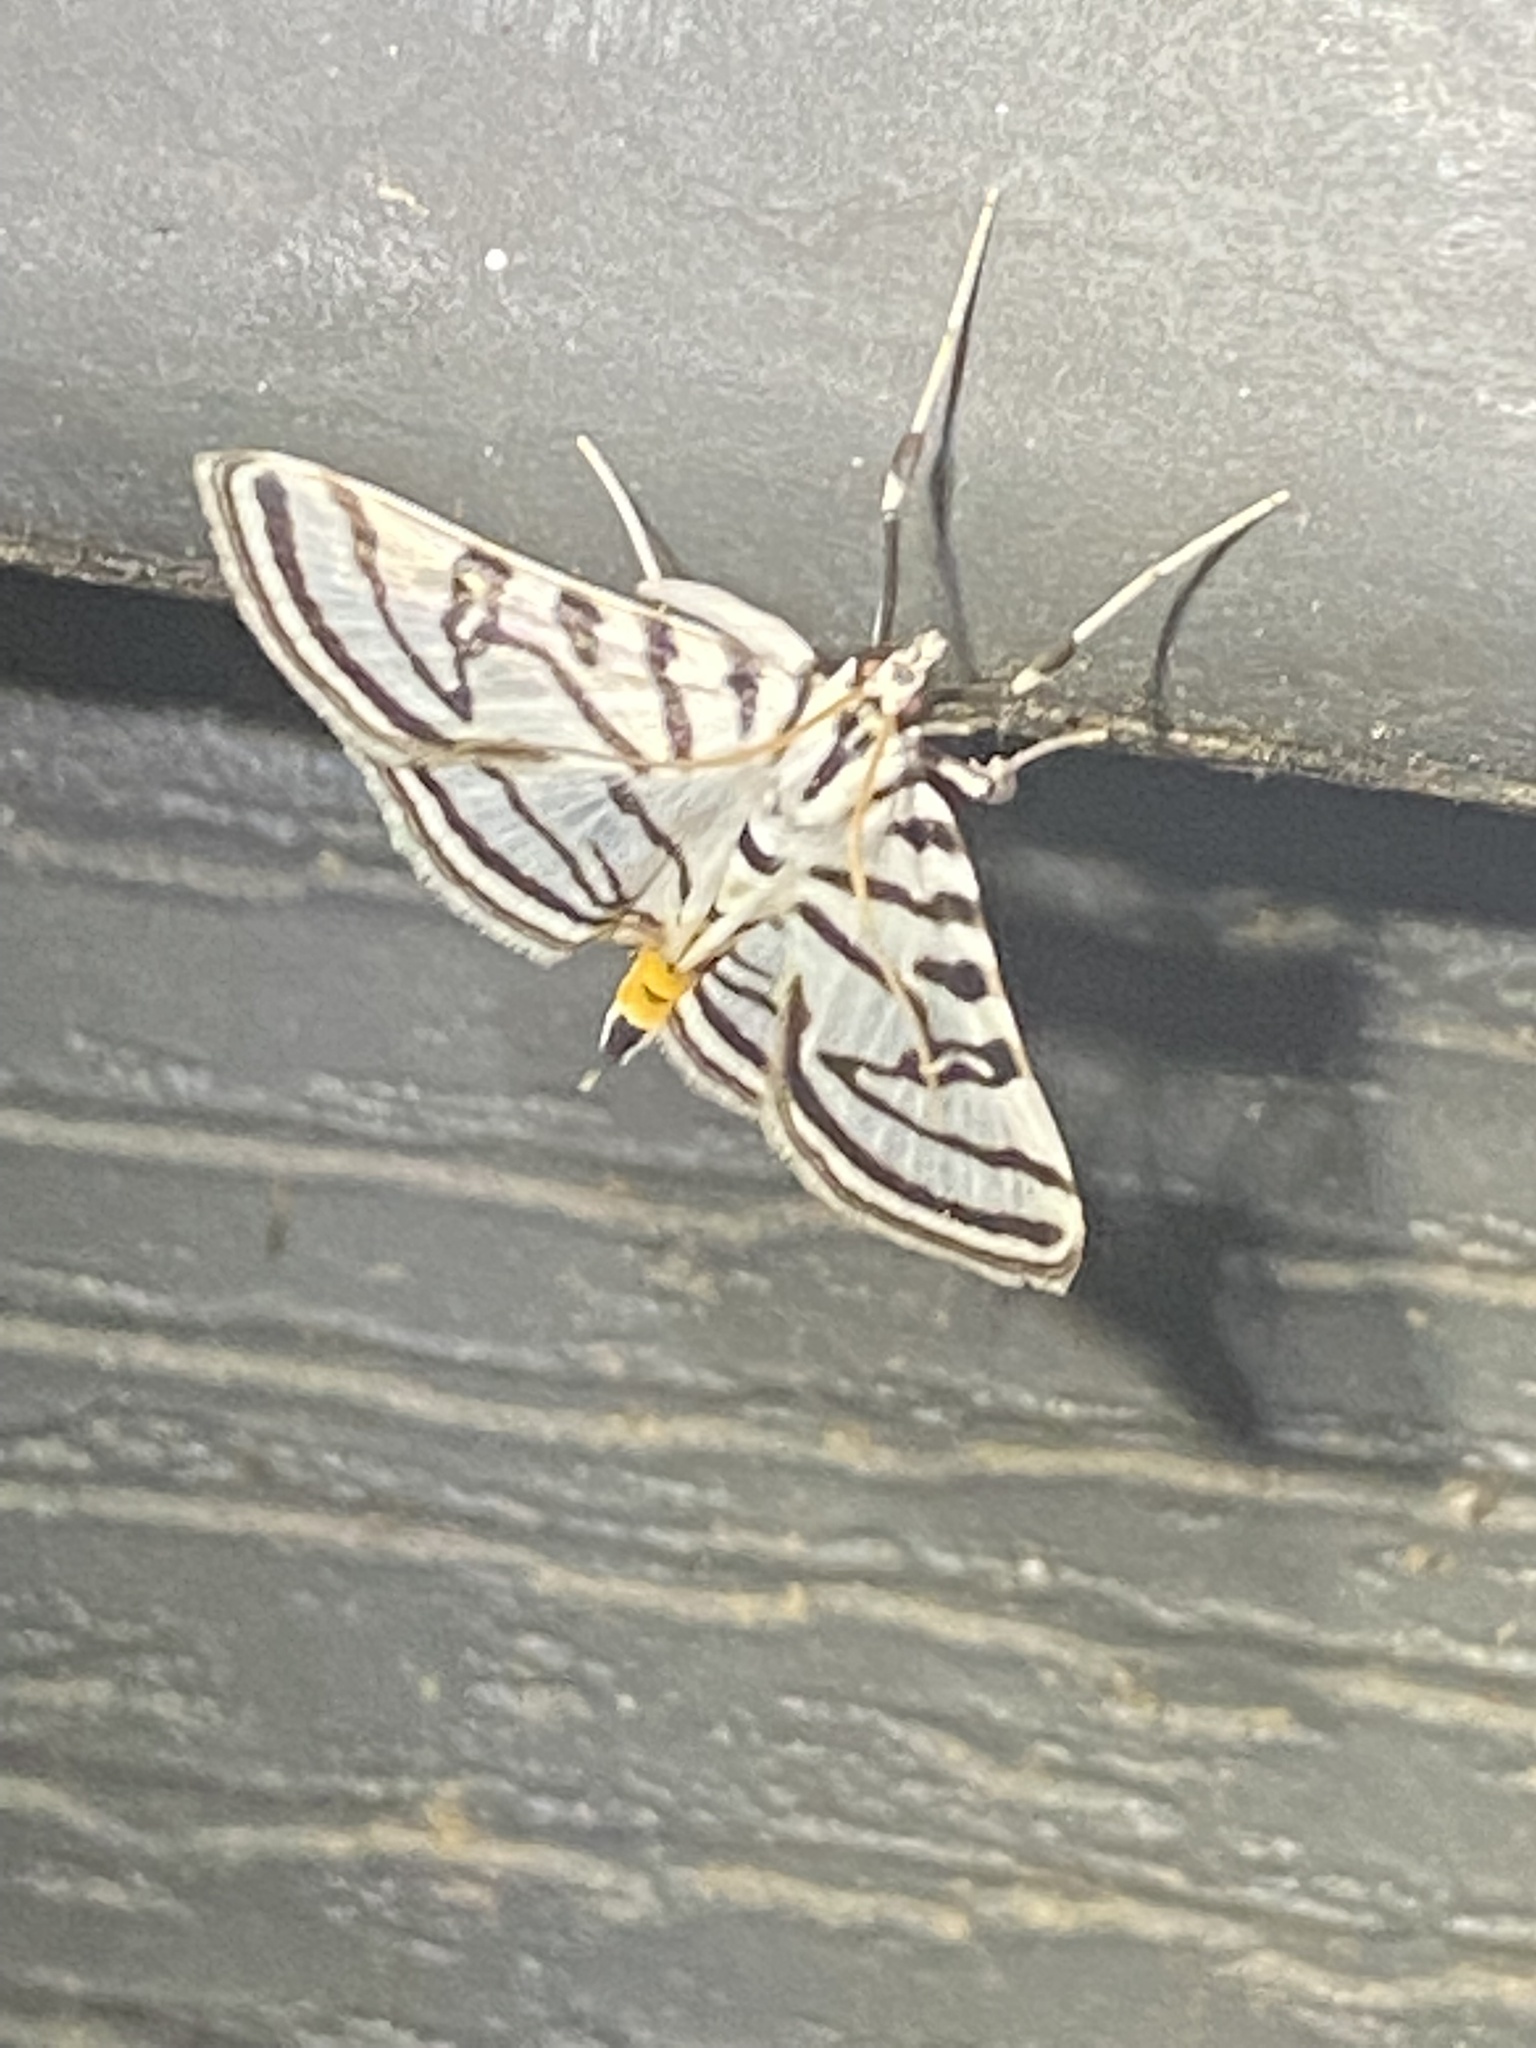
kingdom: Animalia
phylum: Arthropoda
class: Insecta
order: Lepidoptera
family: Crambidae
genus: Conchylodes
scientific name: Conchylodes ovulalis
